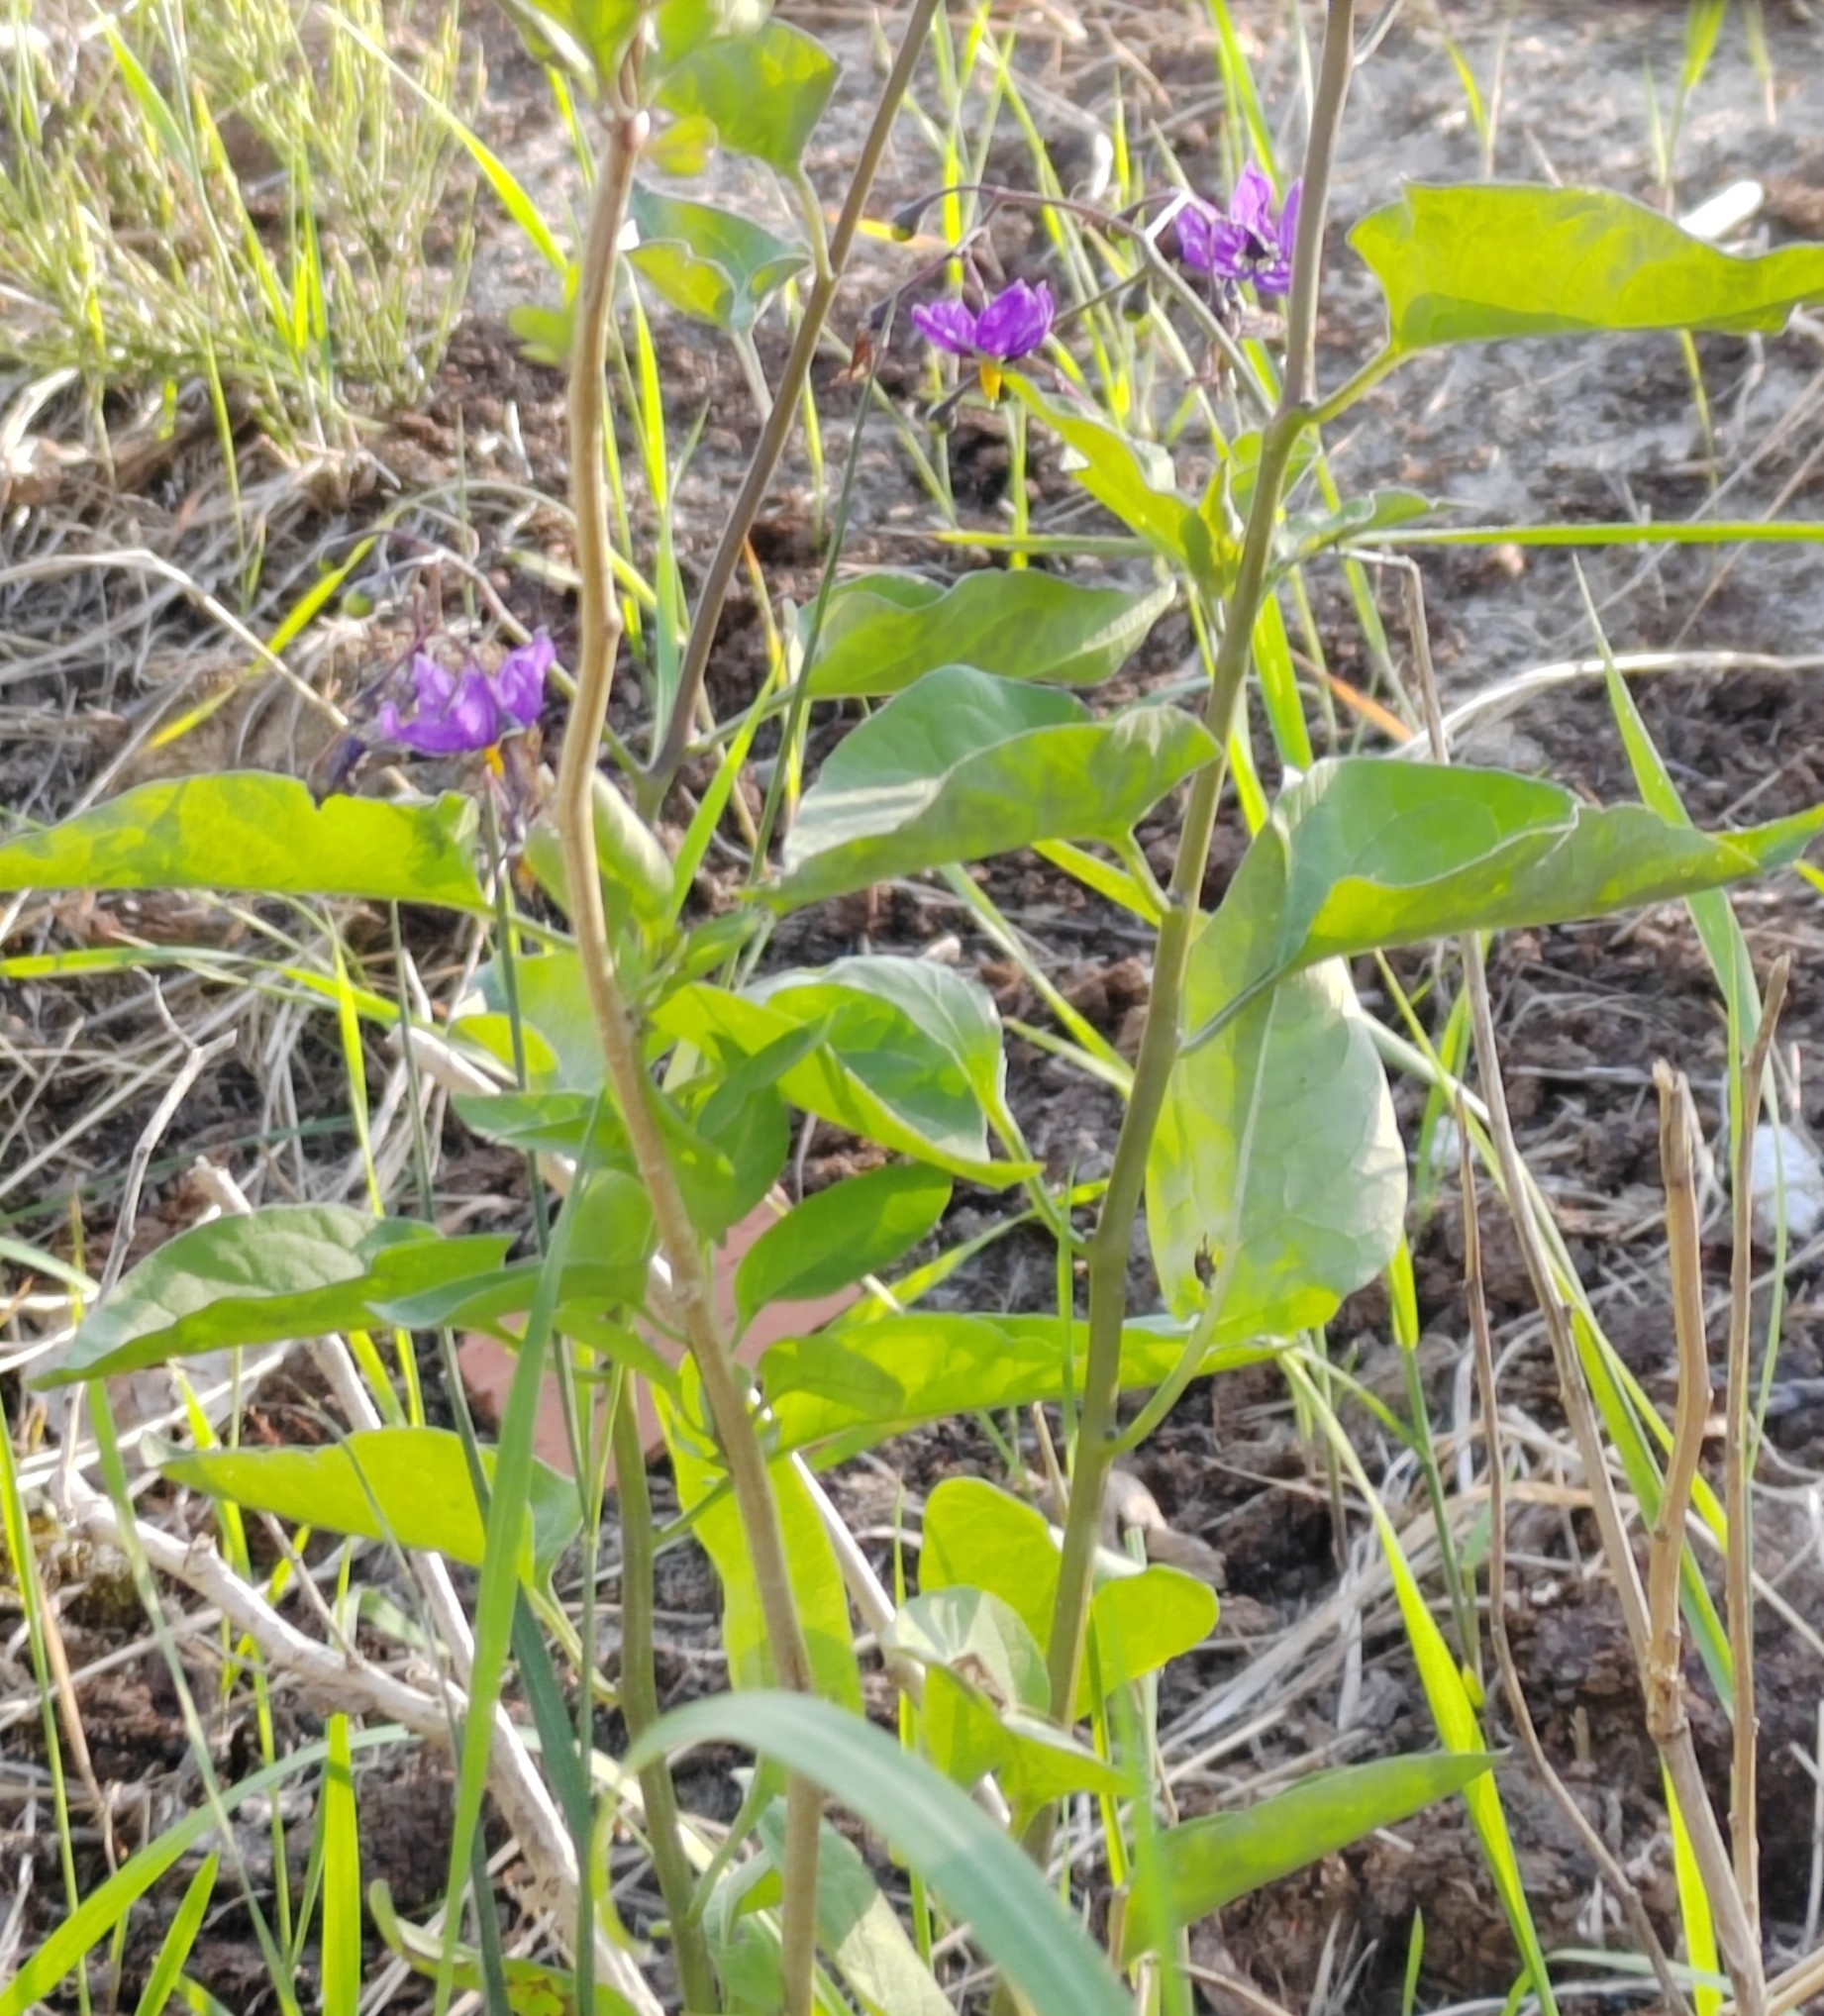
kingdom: Plantae
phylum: Tracheophyta
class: Magnoliopsida
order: Solanales
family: Solanaceae
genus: Solanum
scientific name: Solanum dulcamara
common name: Climbing nightshade
